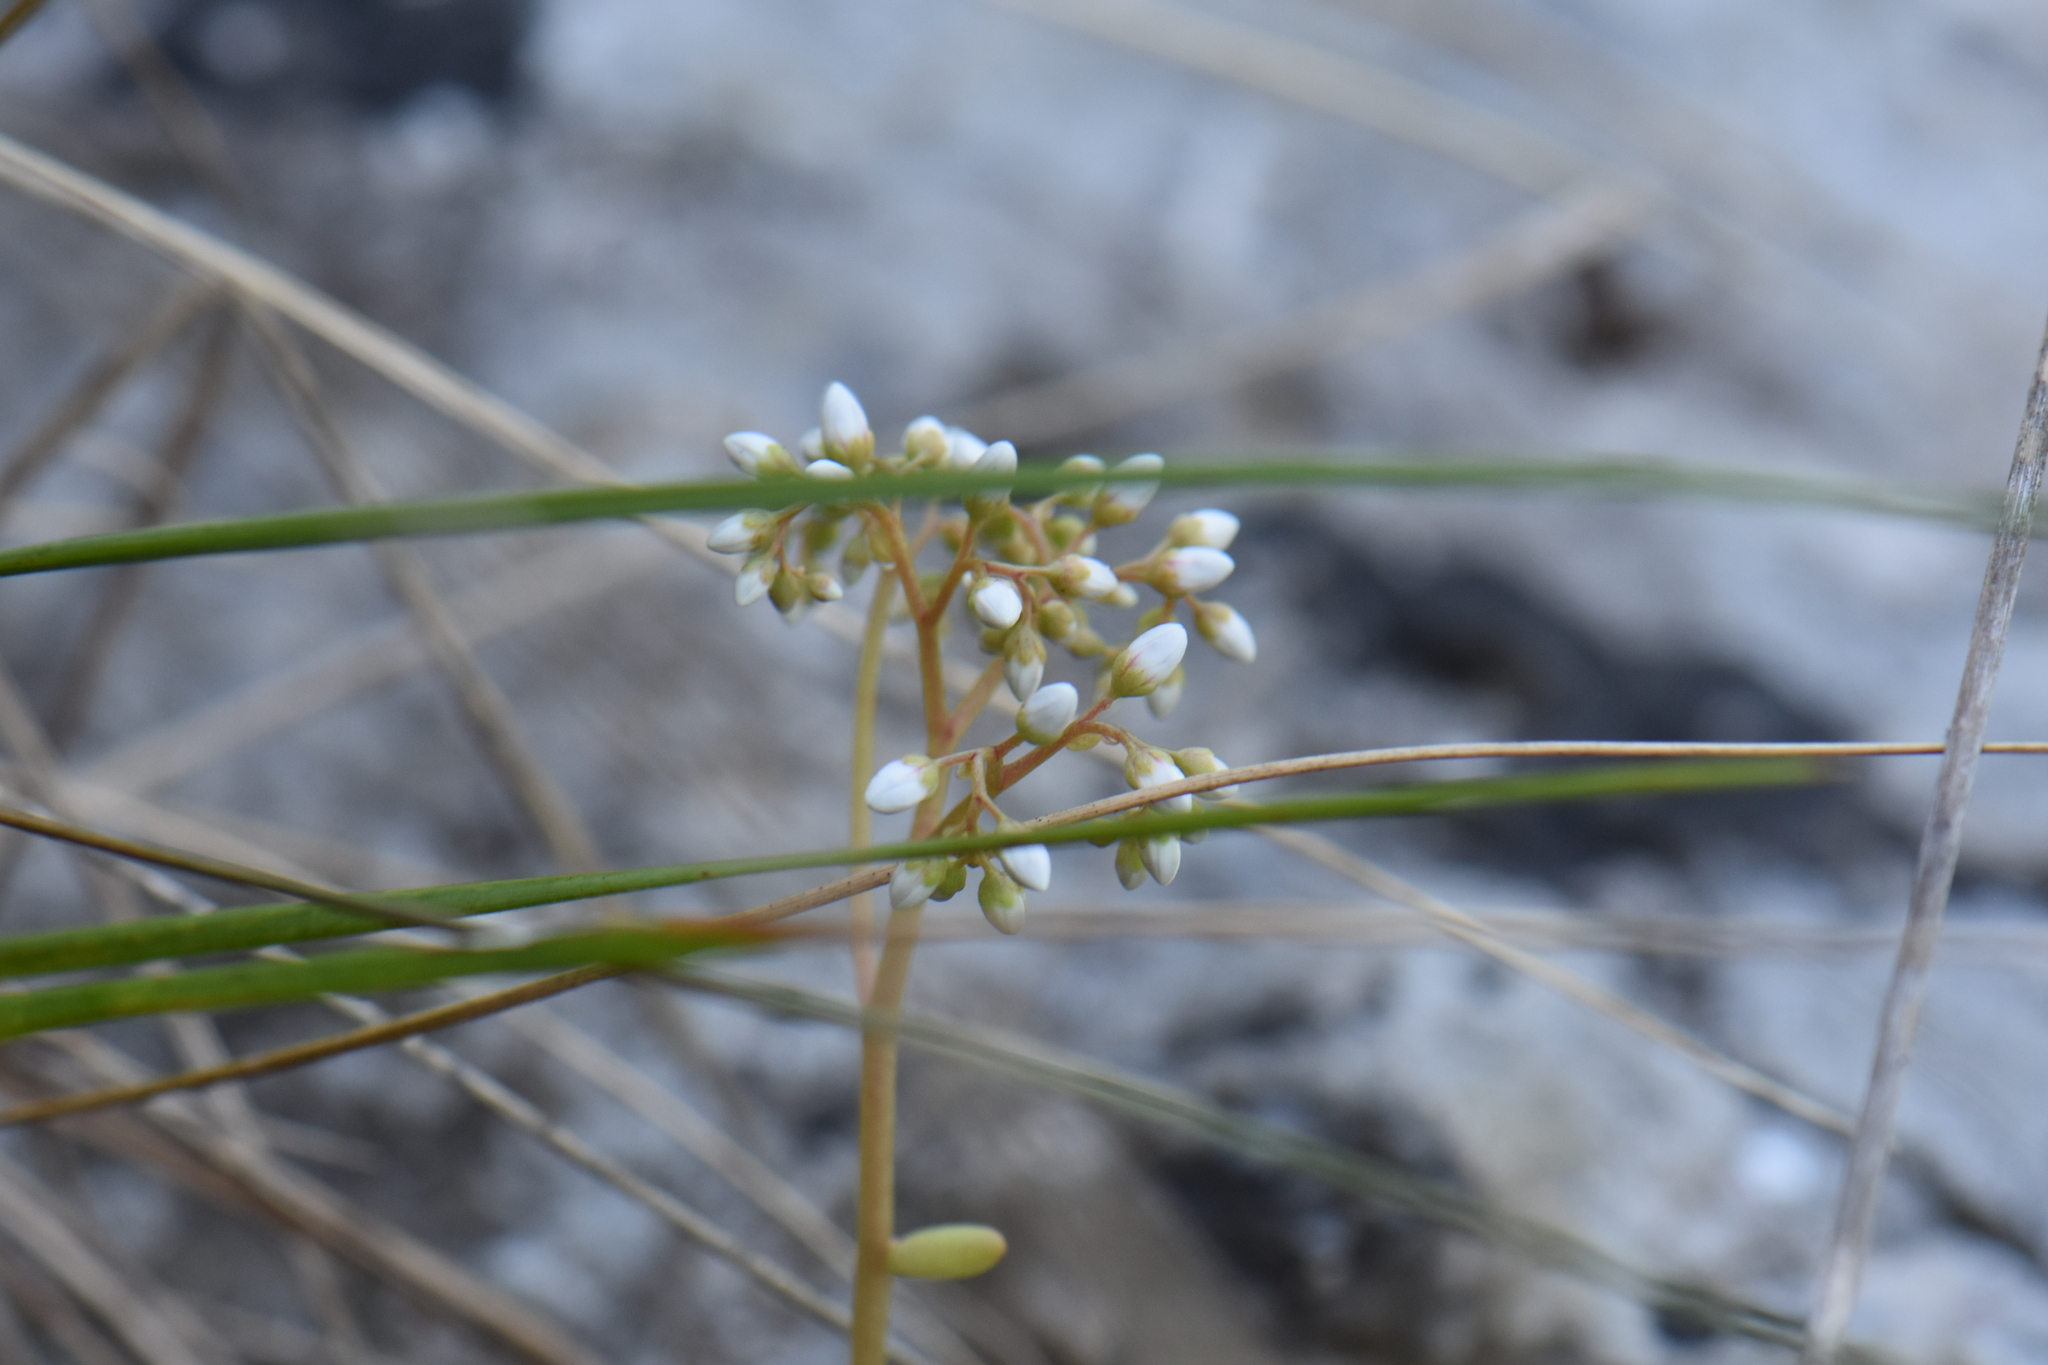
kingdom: Plantae
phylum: Tracheophyta
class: Magnoliopsida
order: Saxifragales
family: Crassulaceae
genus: Sedum
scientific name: Sedum album
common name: White stonecrop
